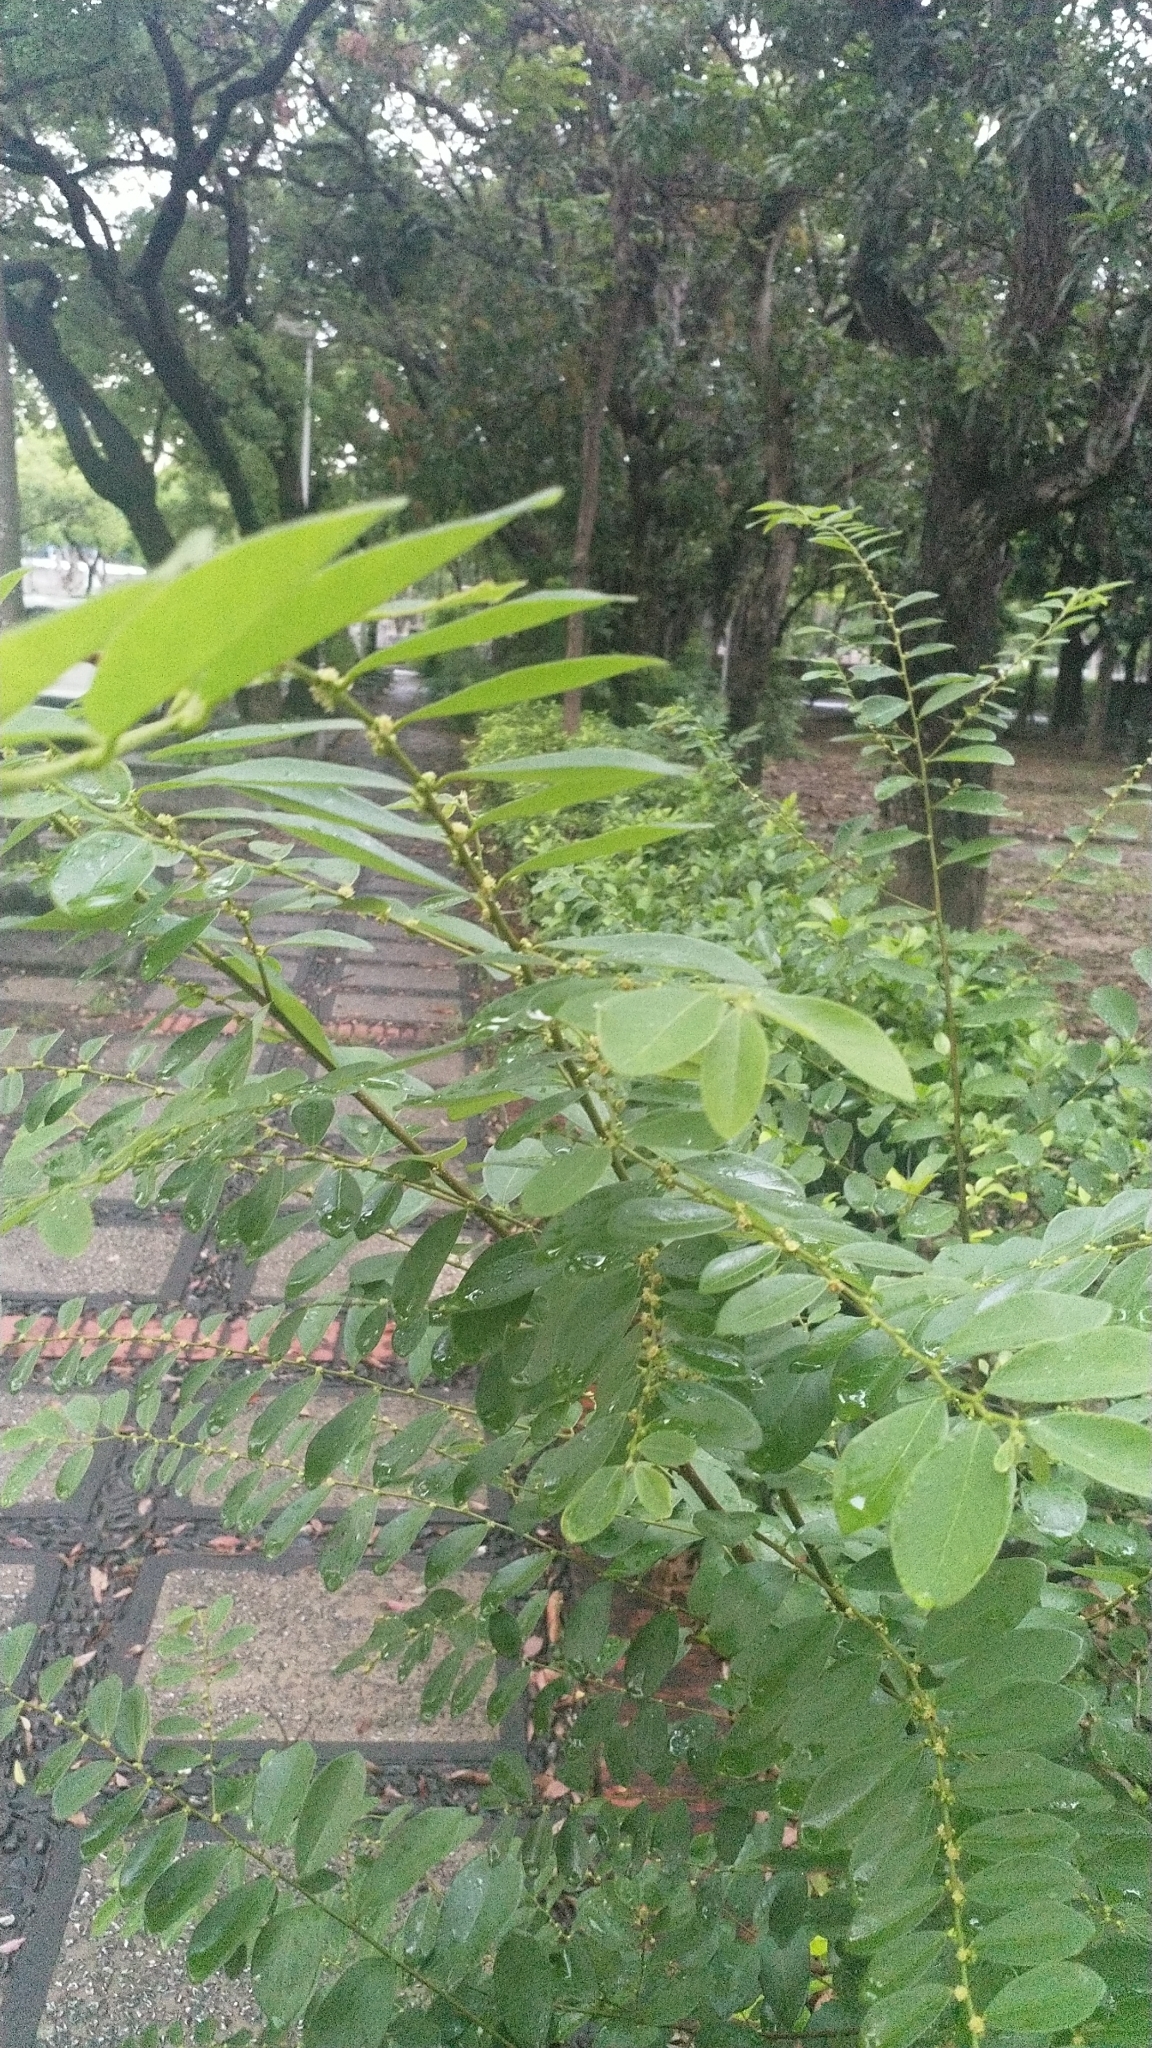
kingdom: Plantae
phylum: Tracheophyta
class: Magnoliopsida
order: Malpighiales
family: Phyllanthaceae
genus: Bridelia
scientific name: Bridelia tomentosa
